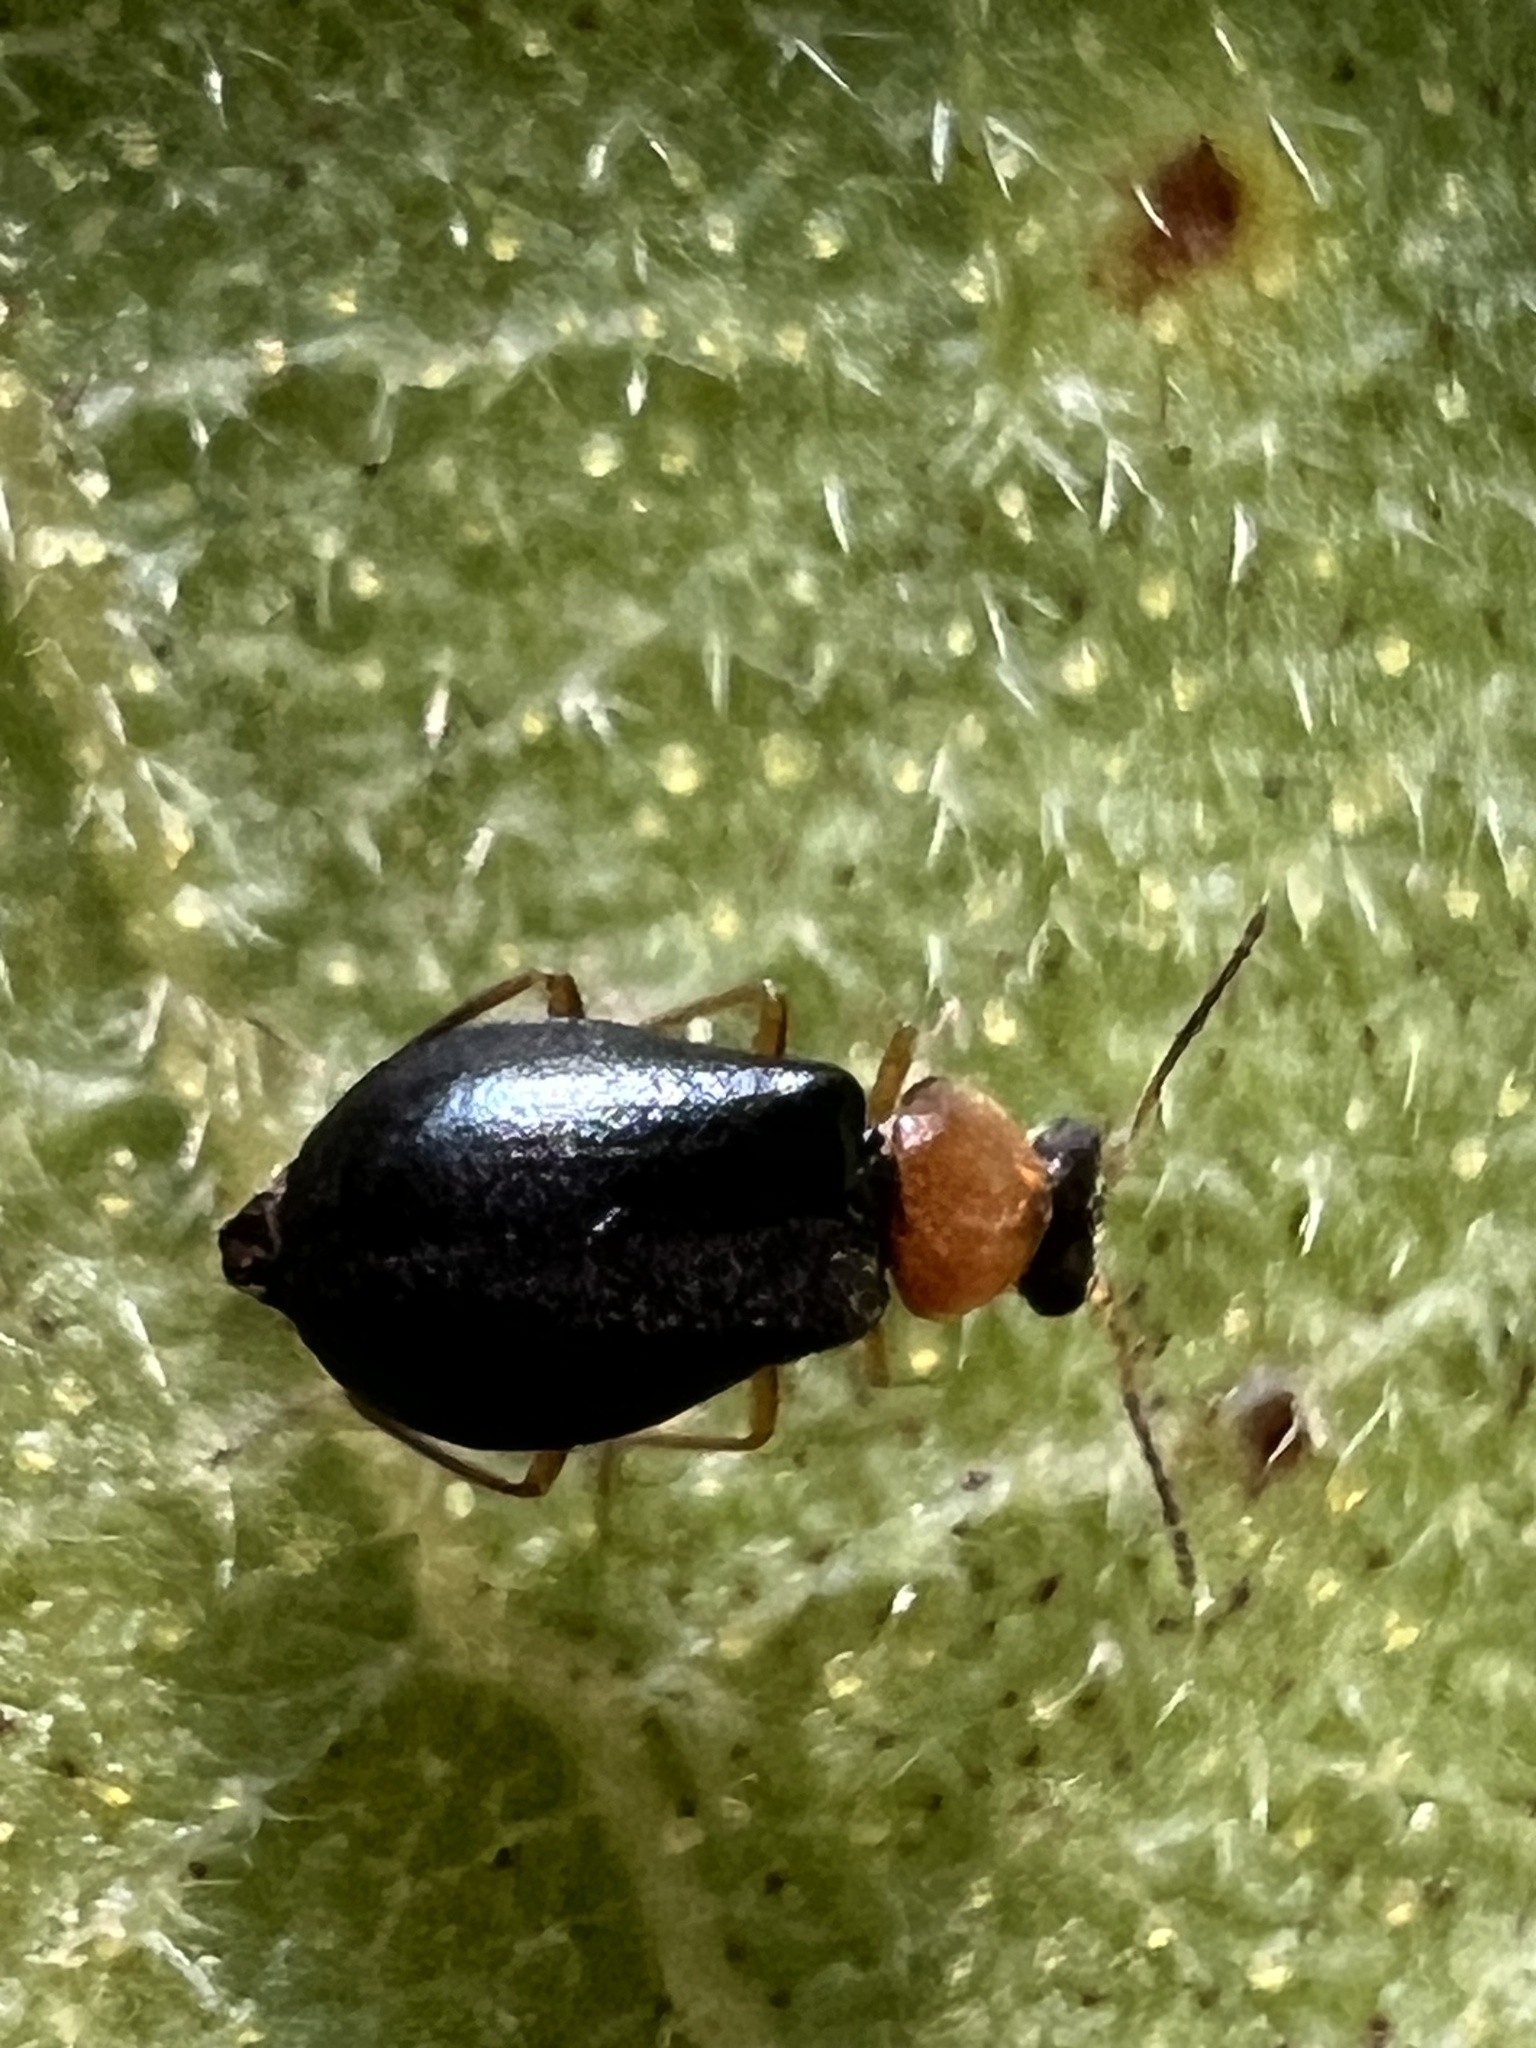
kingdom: Animalia
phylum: Arthropoda
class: Insecta
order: Coleoptera
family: Melyridae
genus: Hypebaeus
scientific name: Hypebaeus bicolor
